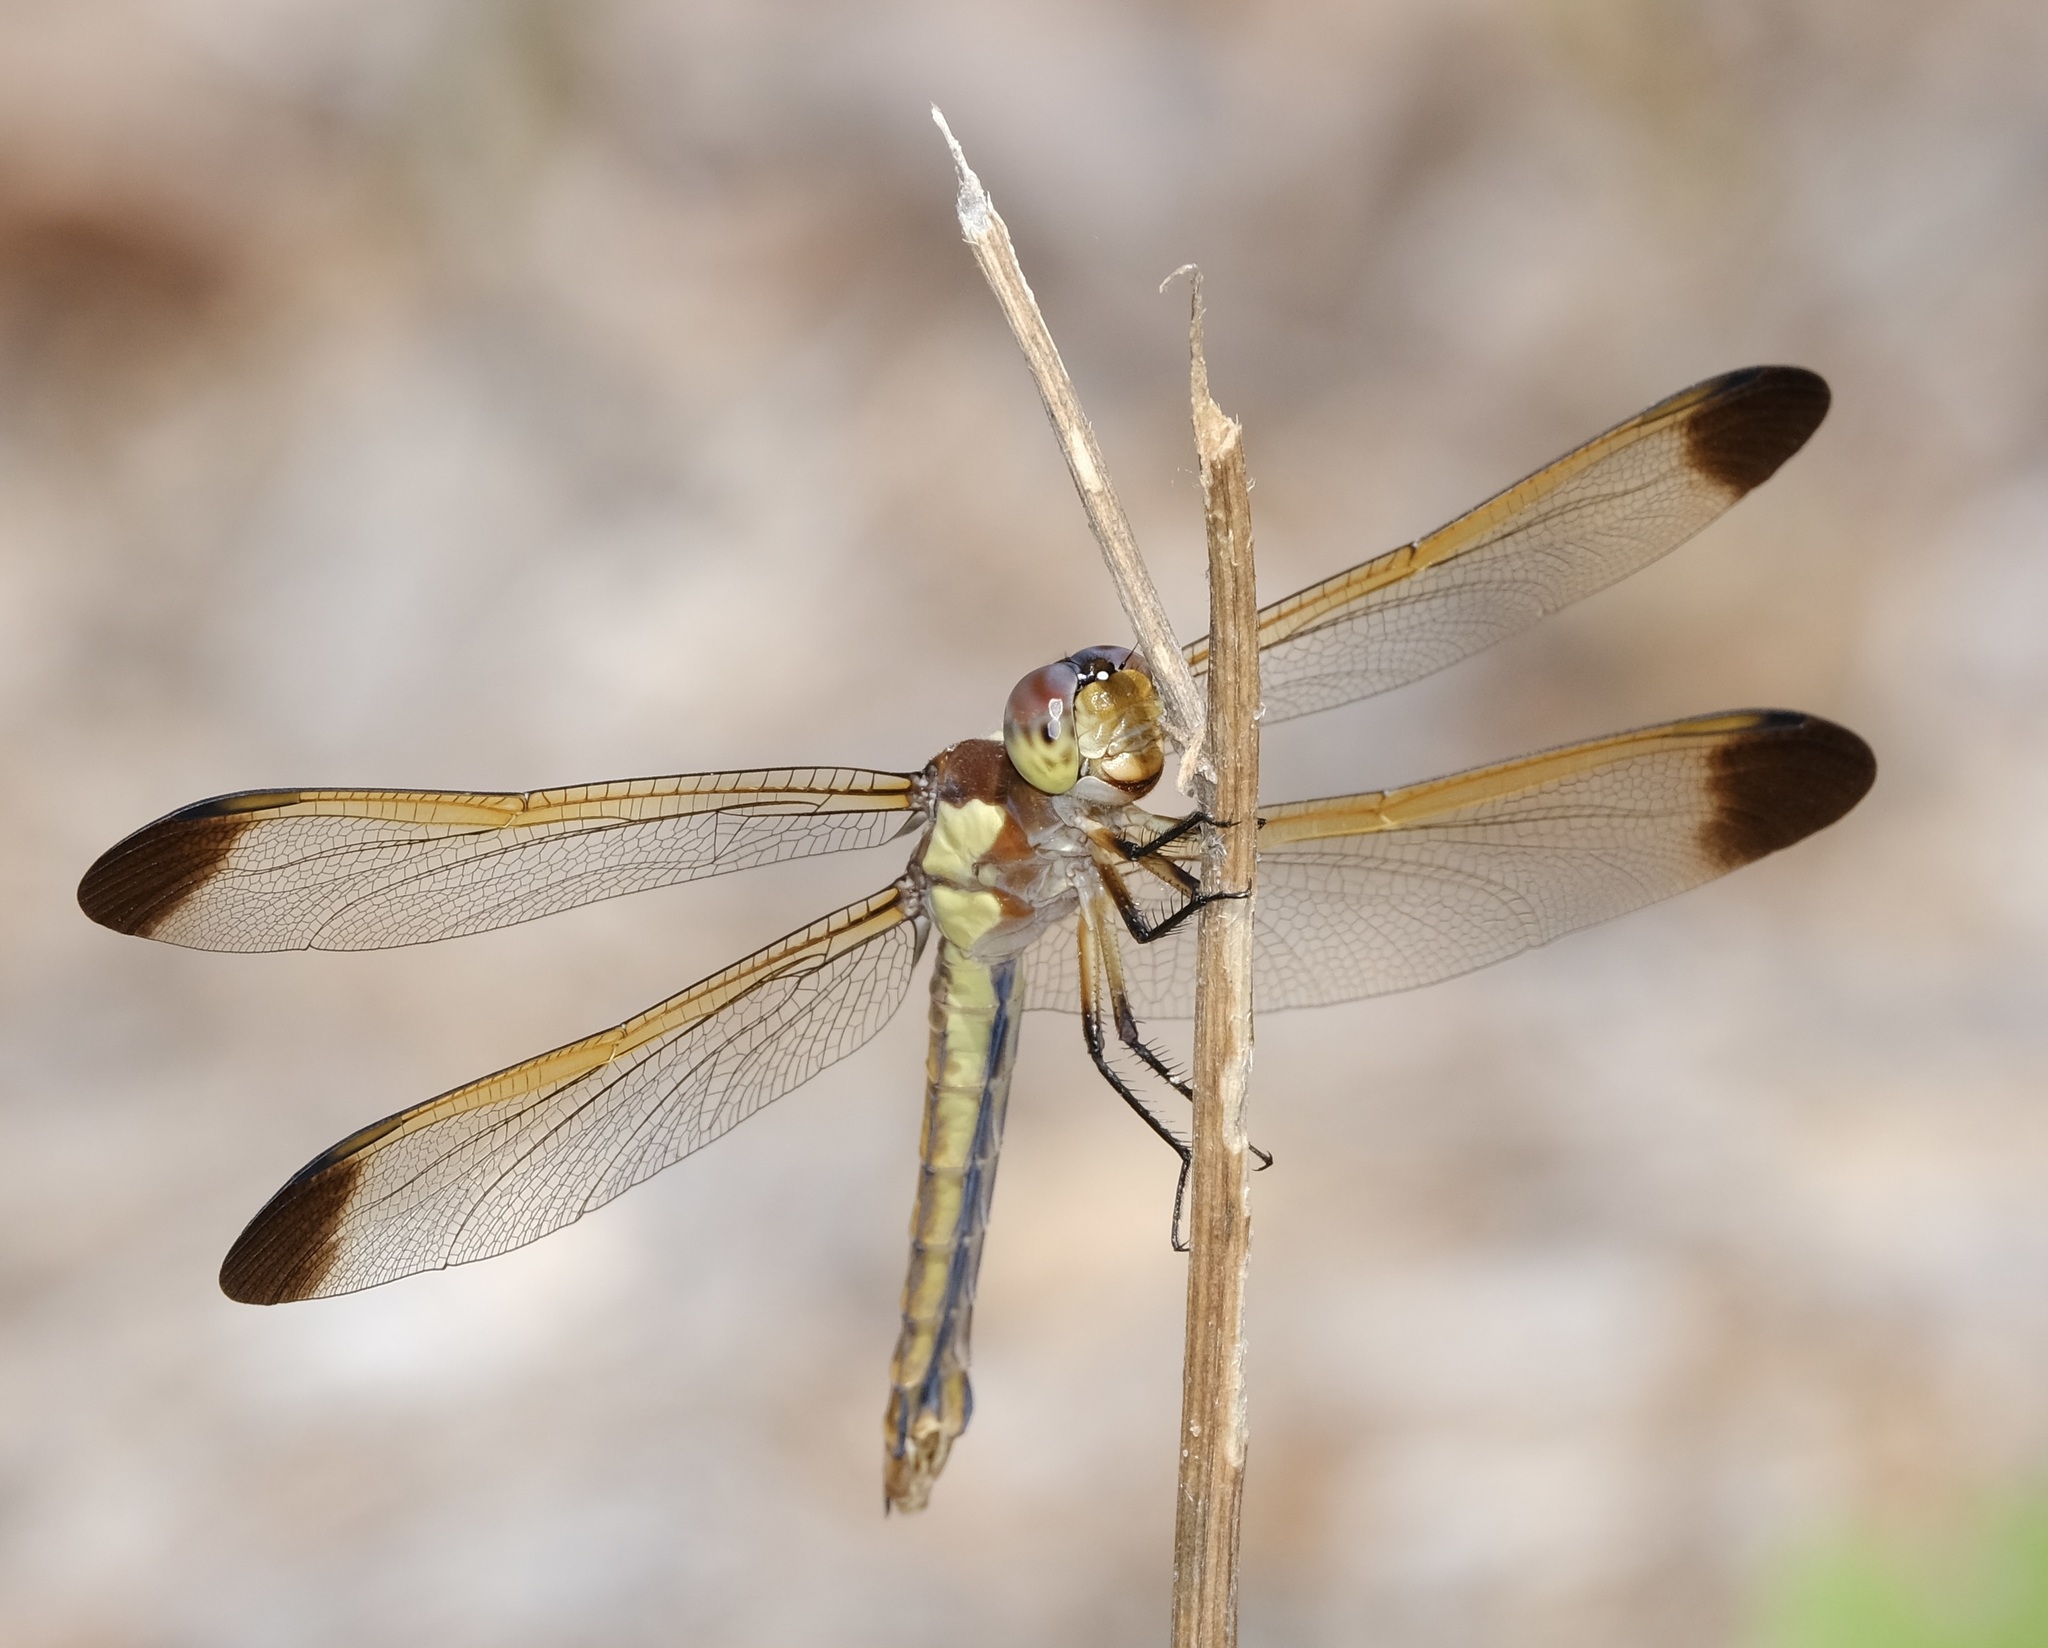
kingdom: Animalia
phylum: Arthropoda
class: Insecta
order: Odonata
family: Libellulidae
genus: Libellula
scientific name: Libellula flavida
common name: Yellow-sided skimmer
